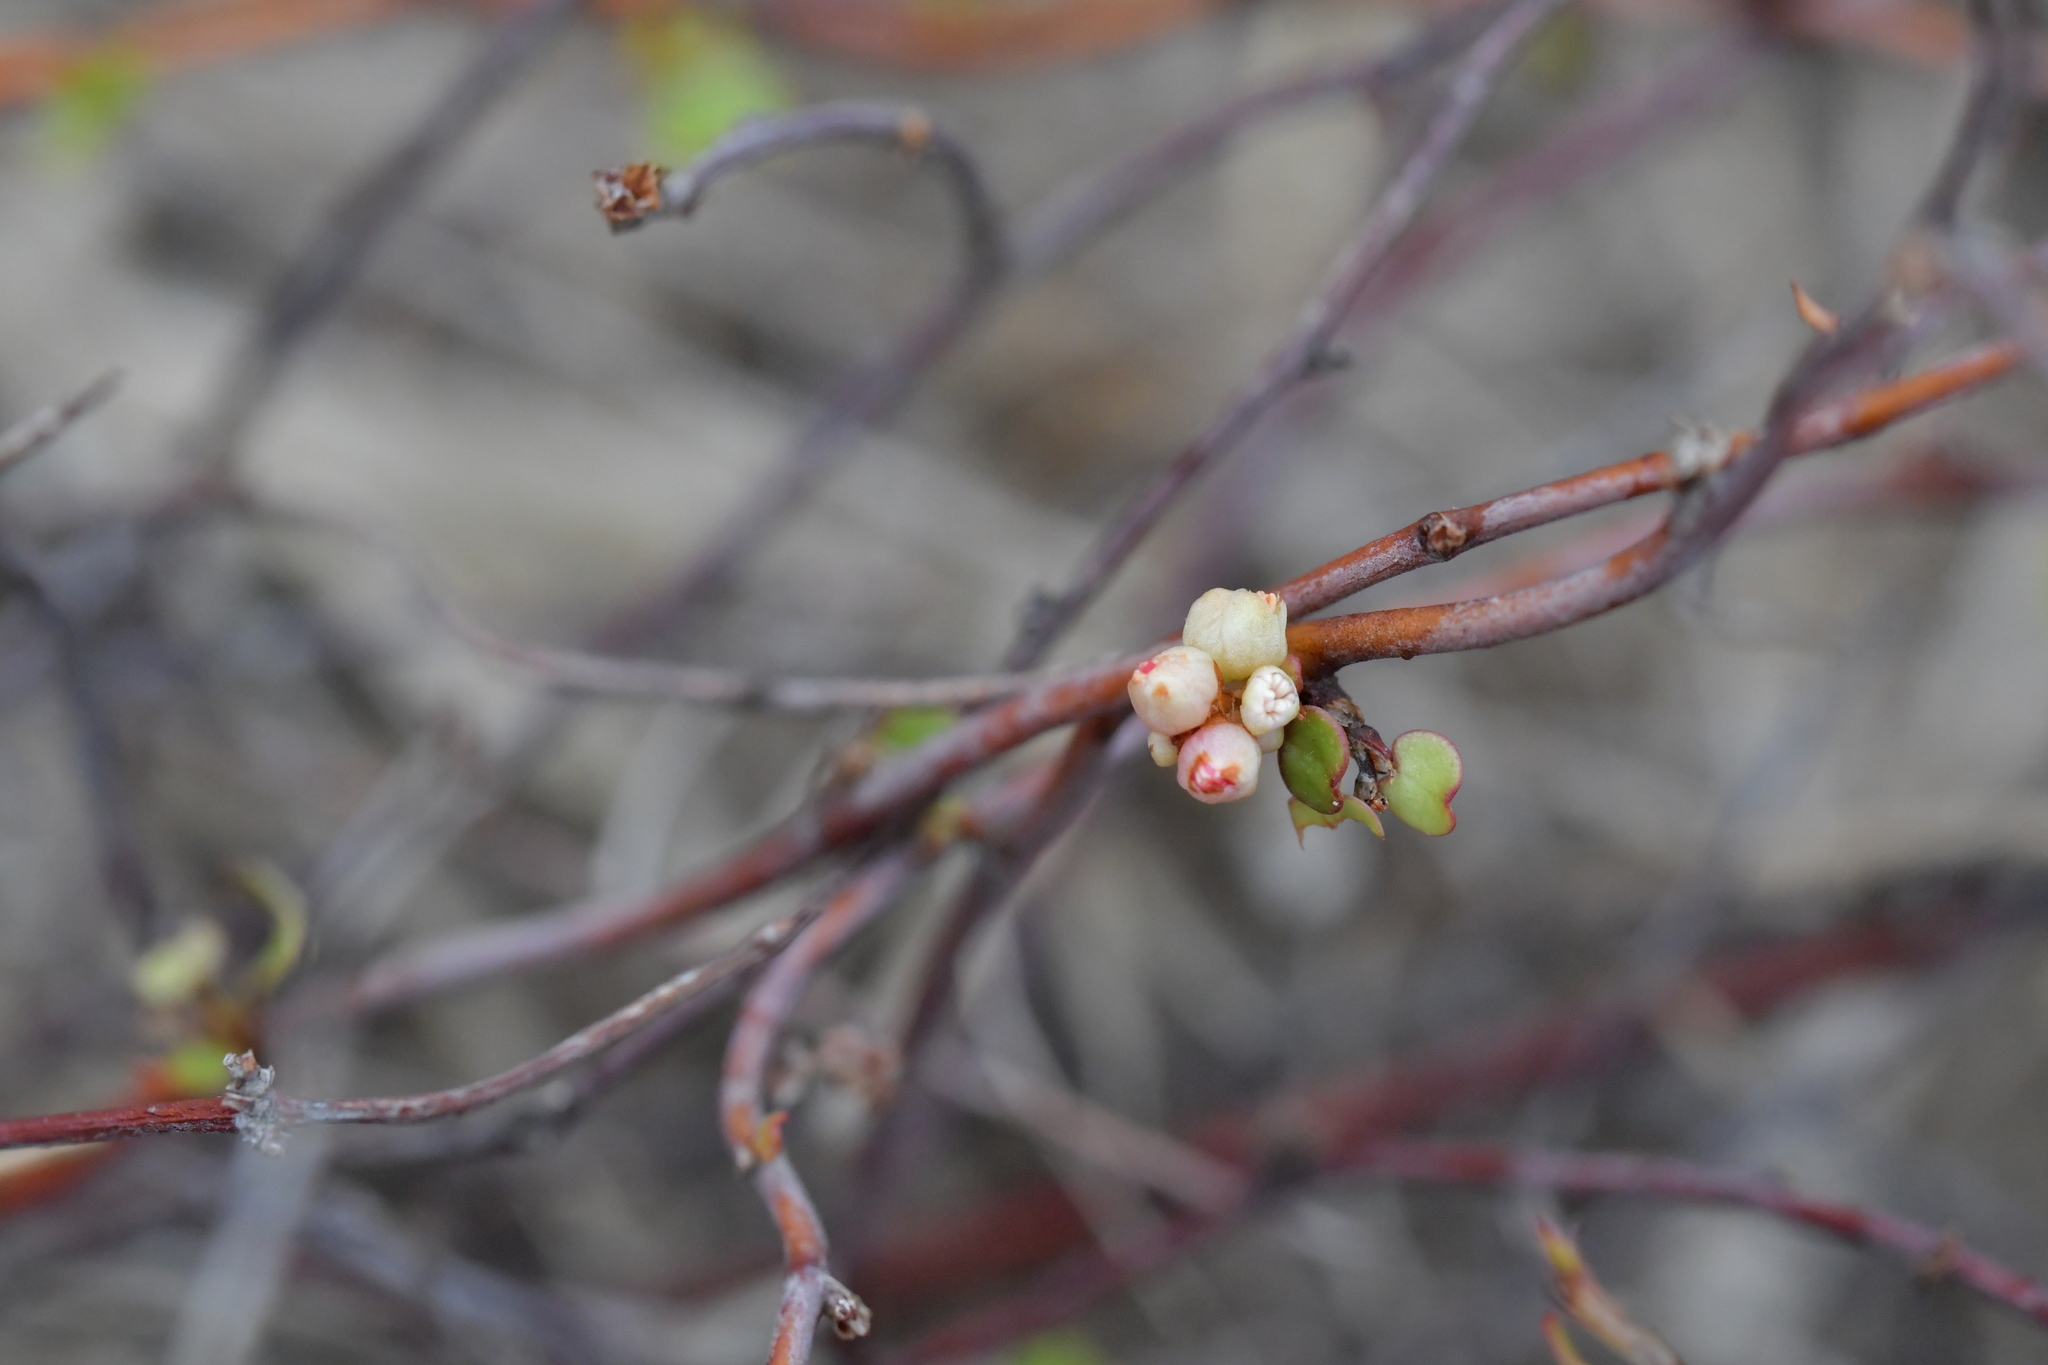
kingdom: Plantae
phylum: Tracheophyta
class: Magnoliopsida
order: Caryophyllales
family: Polygonaceae
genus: Muehlenbeckia
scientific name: Muehlenbeckia complexa
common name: Wireplant
